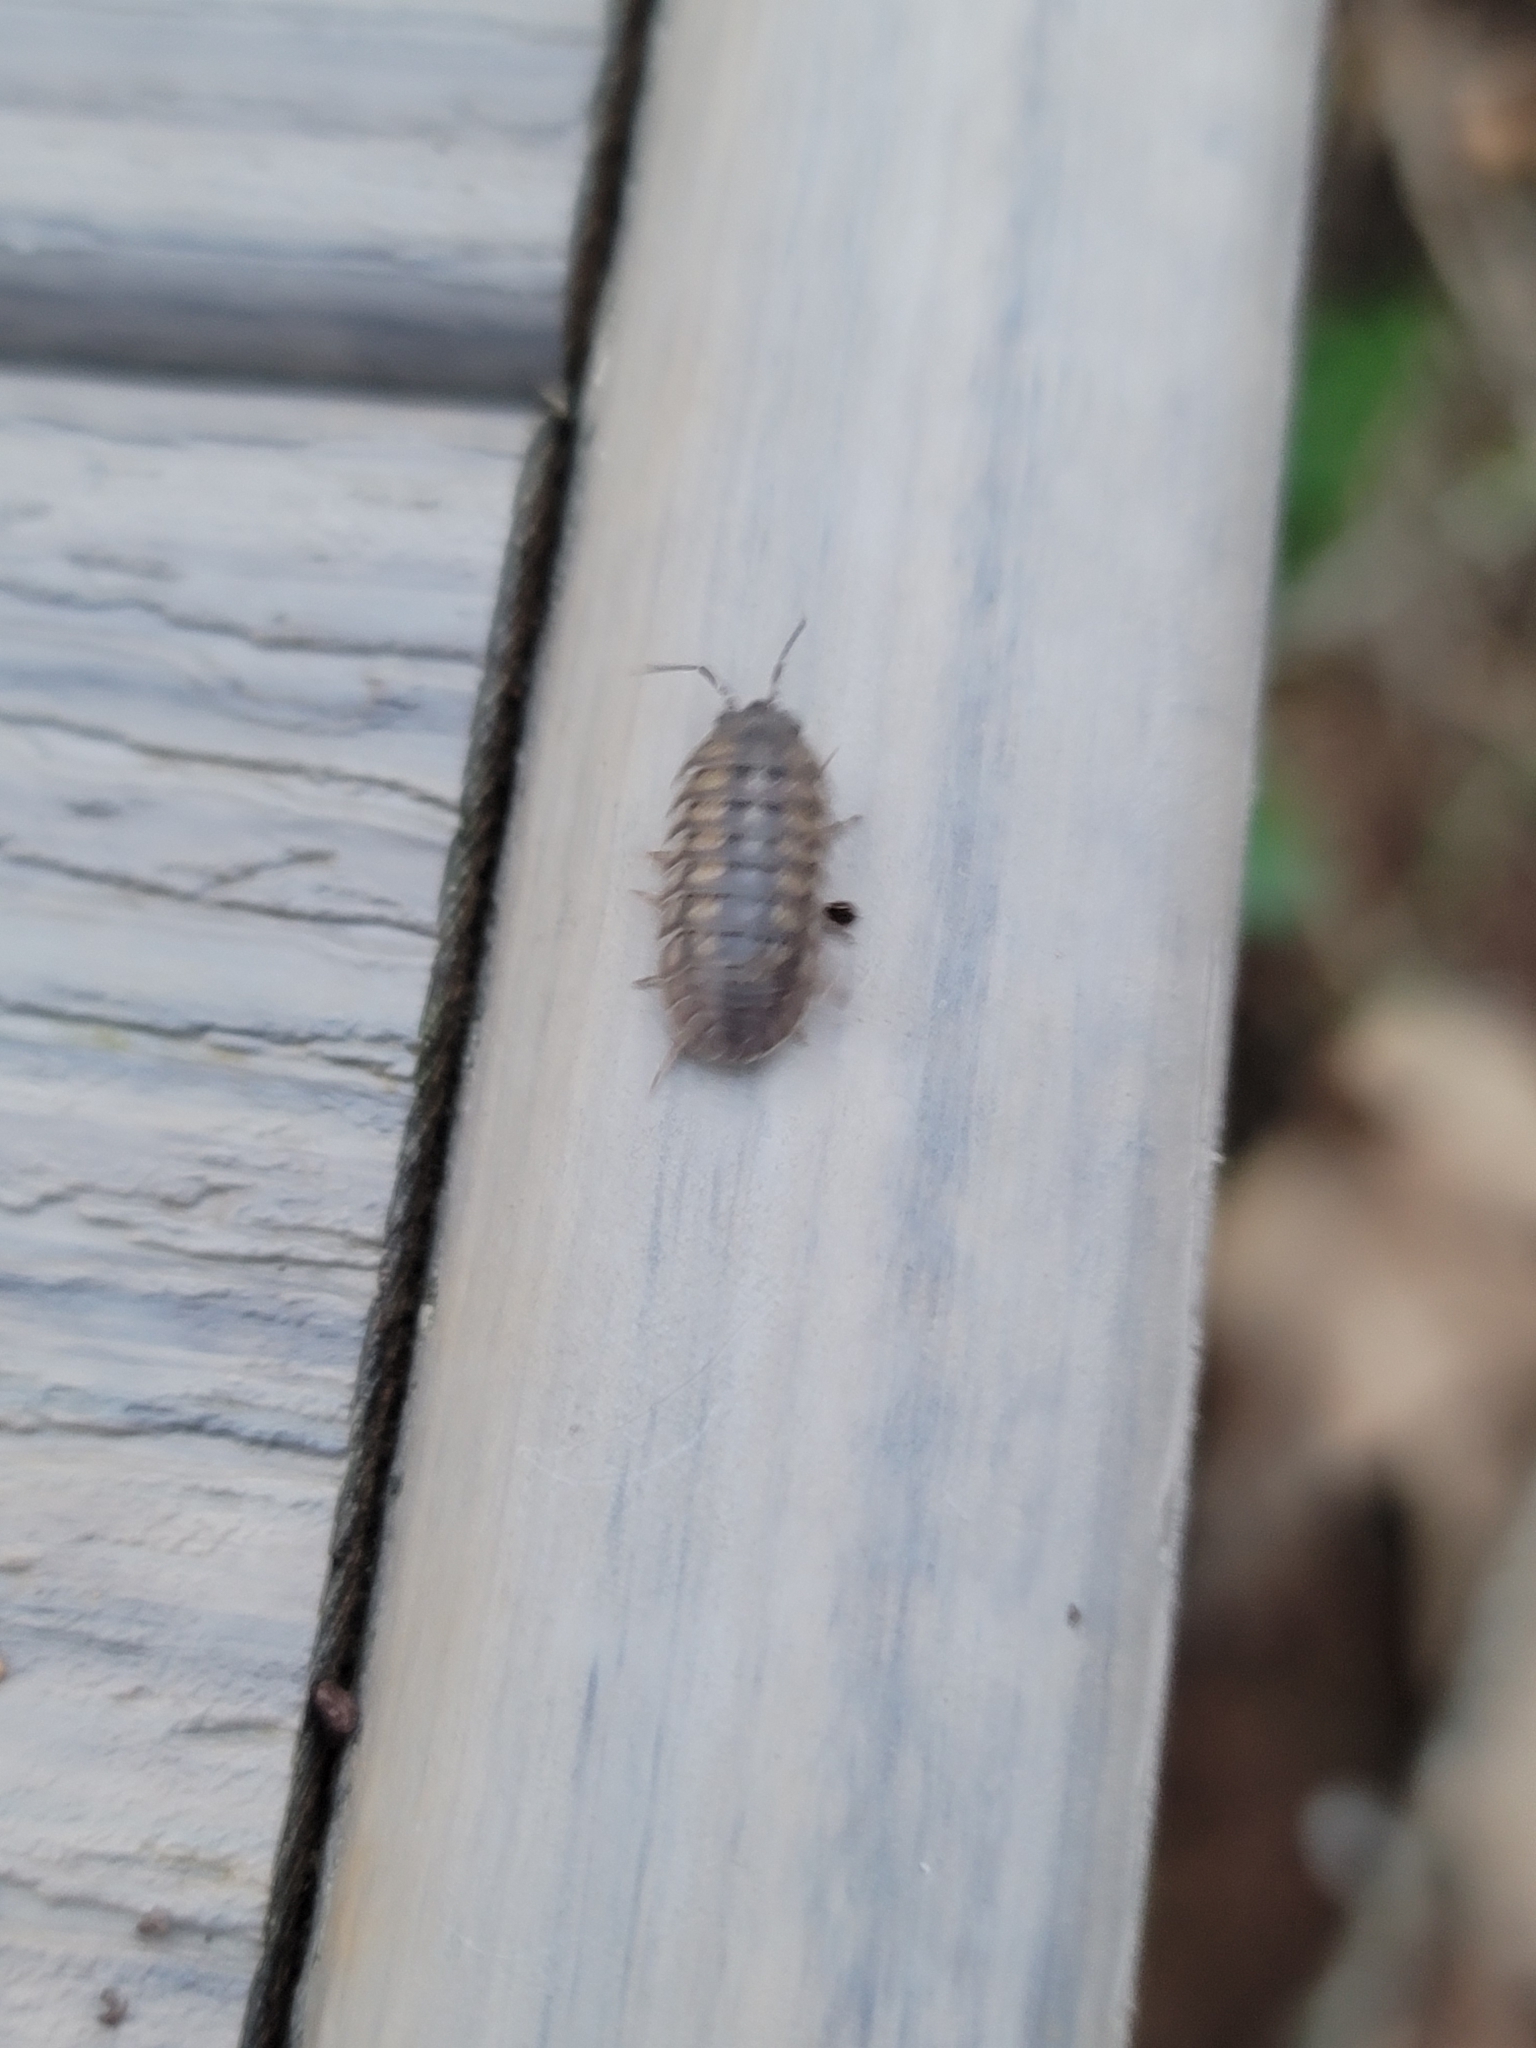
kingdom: Animalia
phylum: Arthropoda
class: Malacostraca
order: Isopoda
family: Armadillidiidae
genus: Armadillidium
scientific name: Armadillidium nasatum
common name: Isopod
